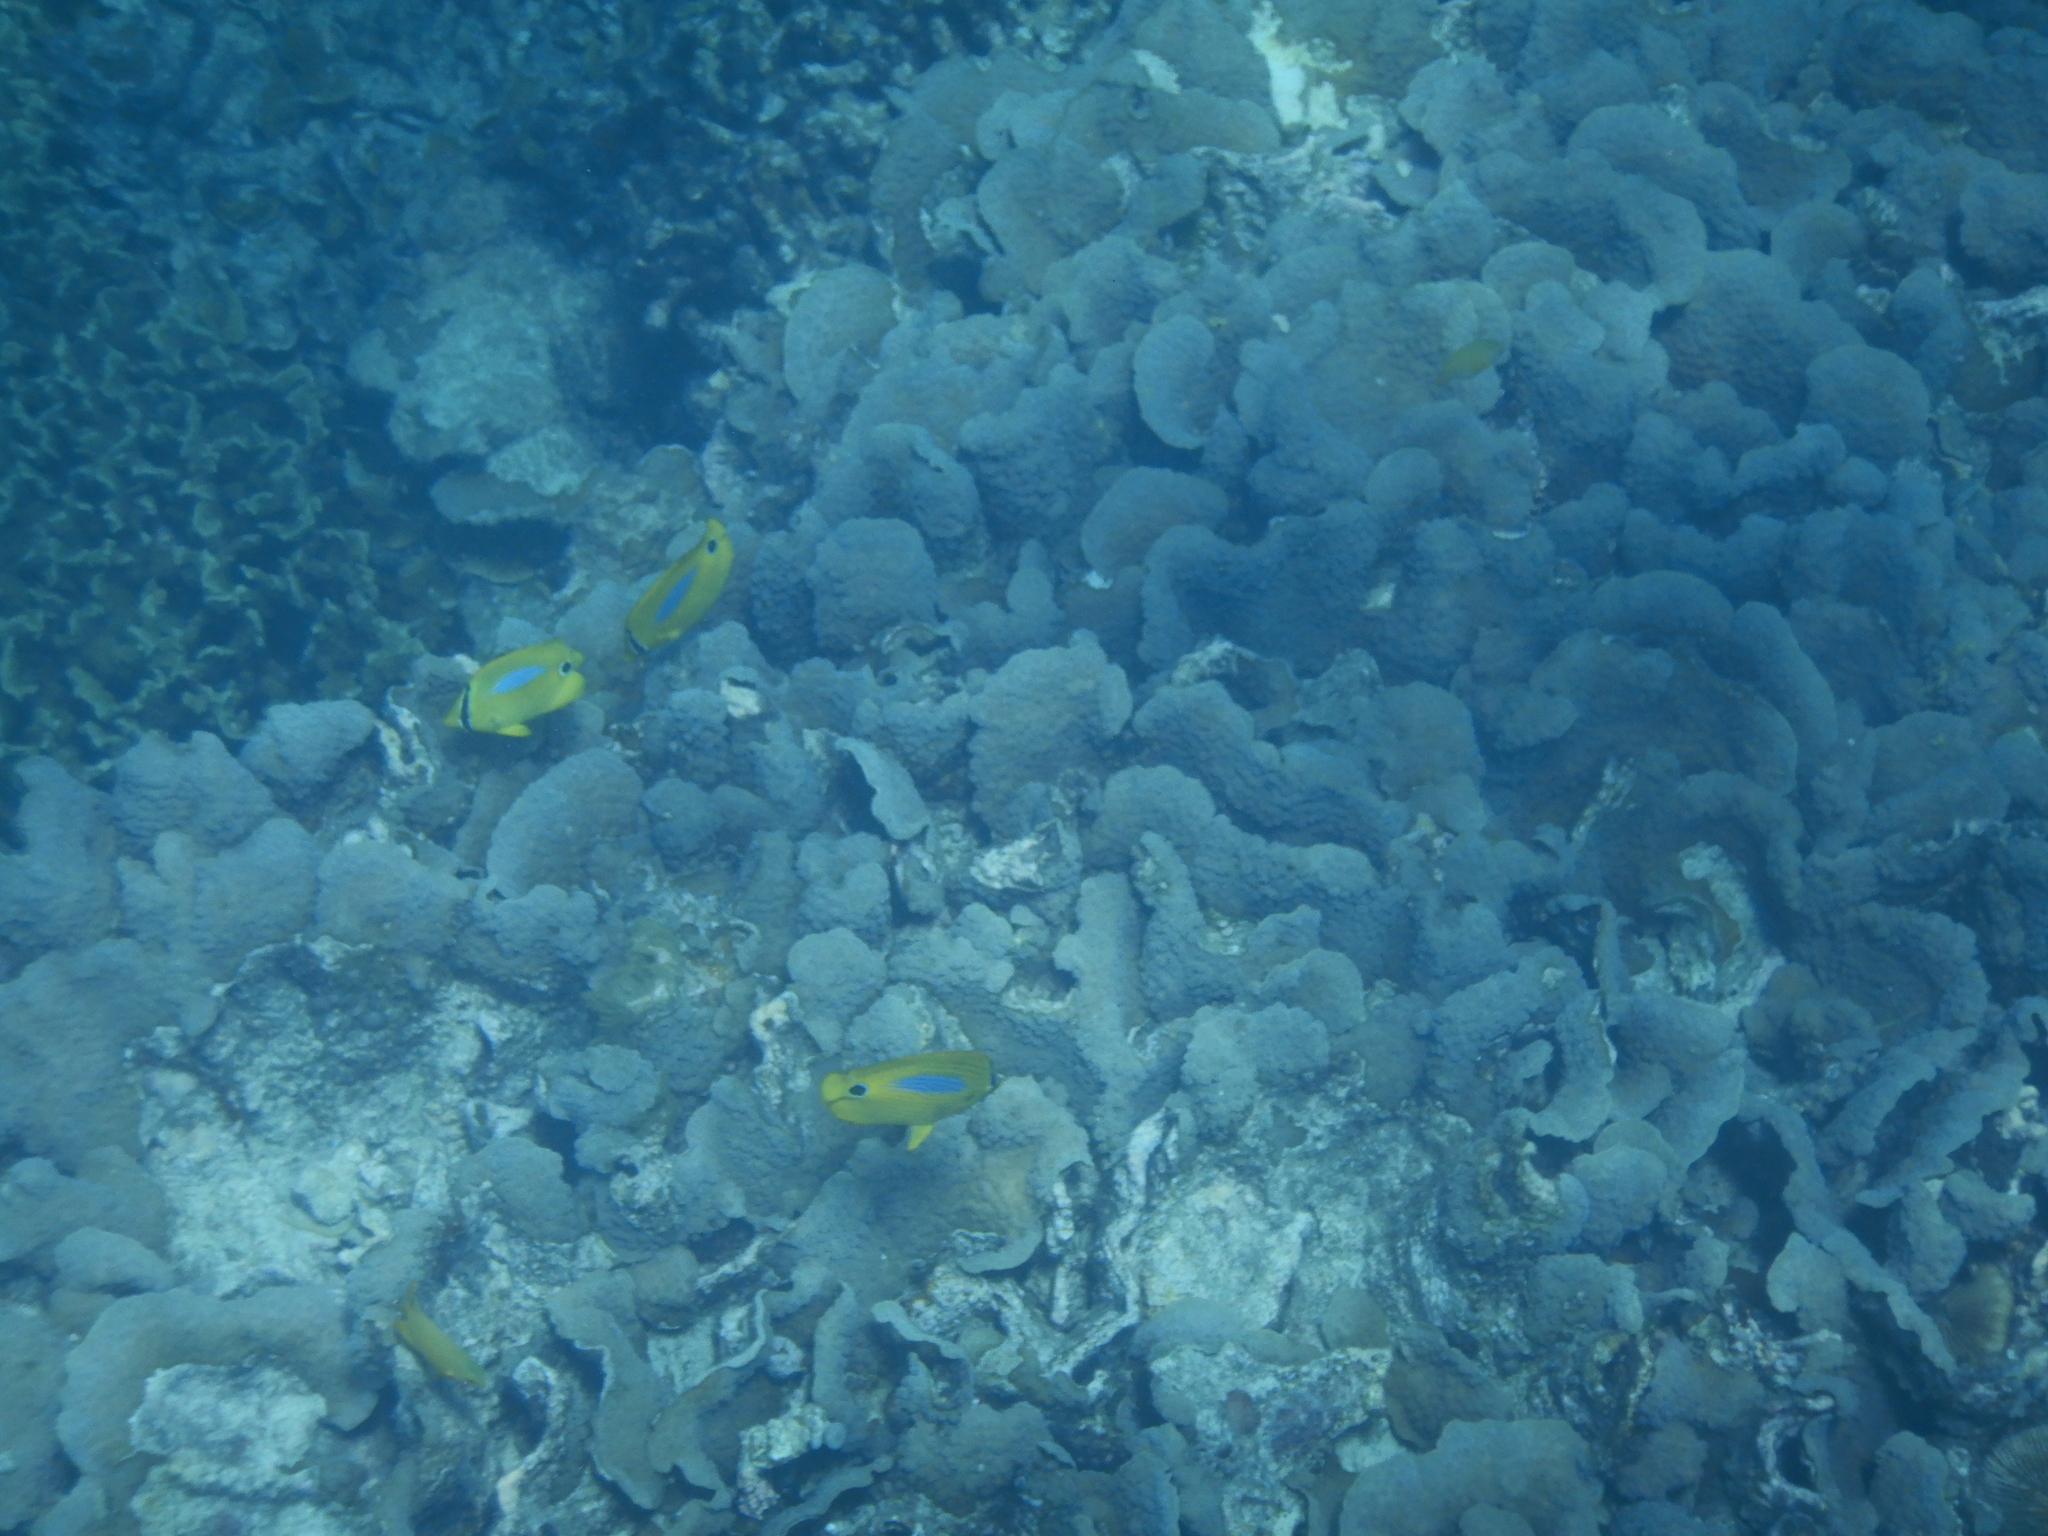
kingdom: Animalia
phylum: Chordata
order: Perciformes
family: Chaetodontidae
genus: Chaetodon
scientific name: Chaetodon plebeius
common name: Bluespot butterflyfish
